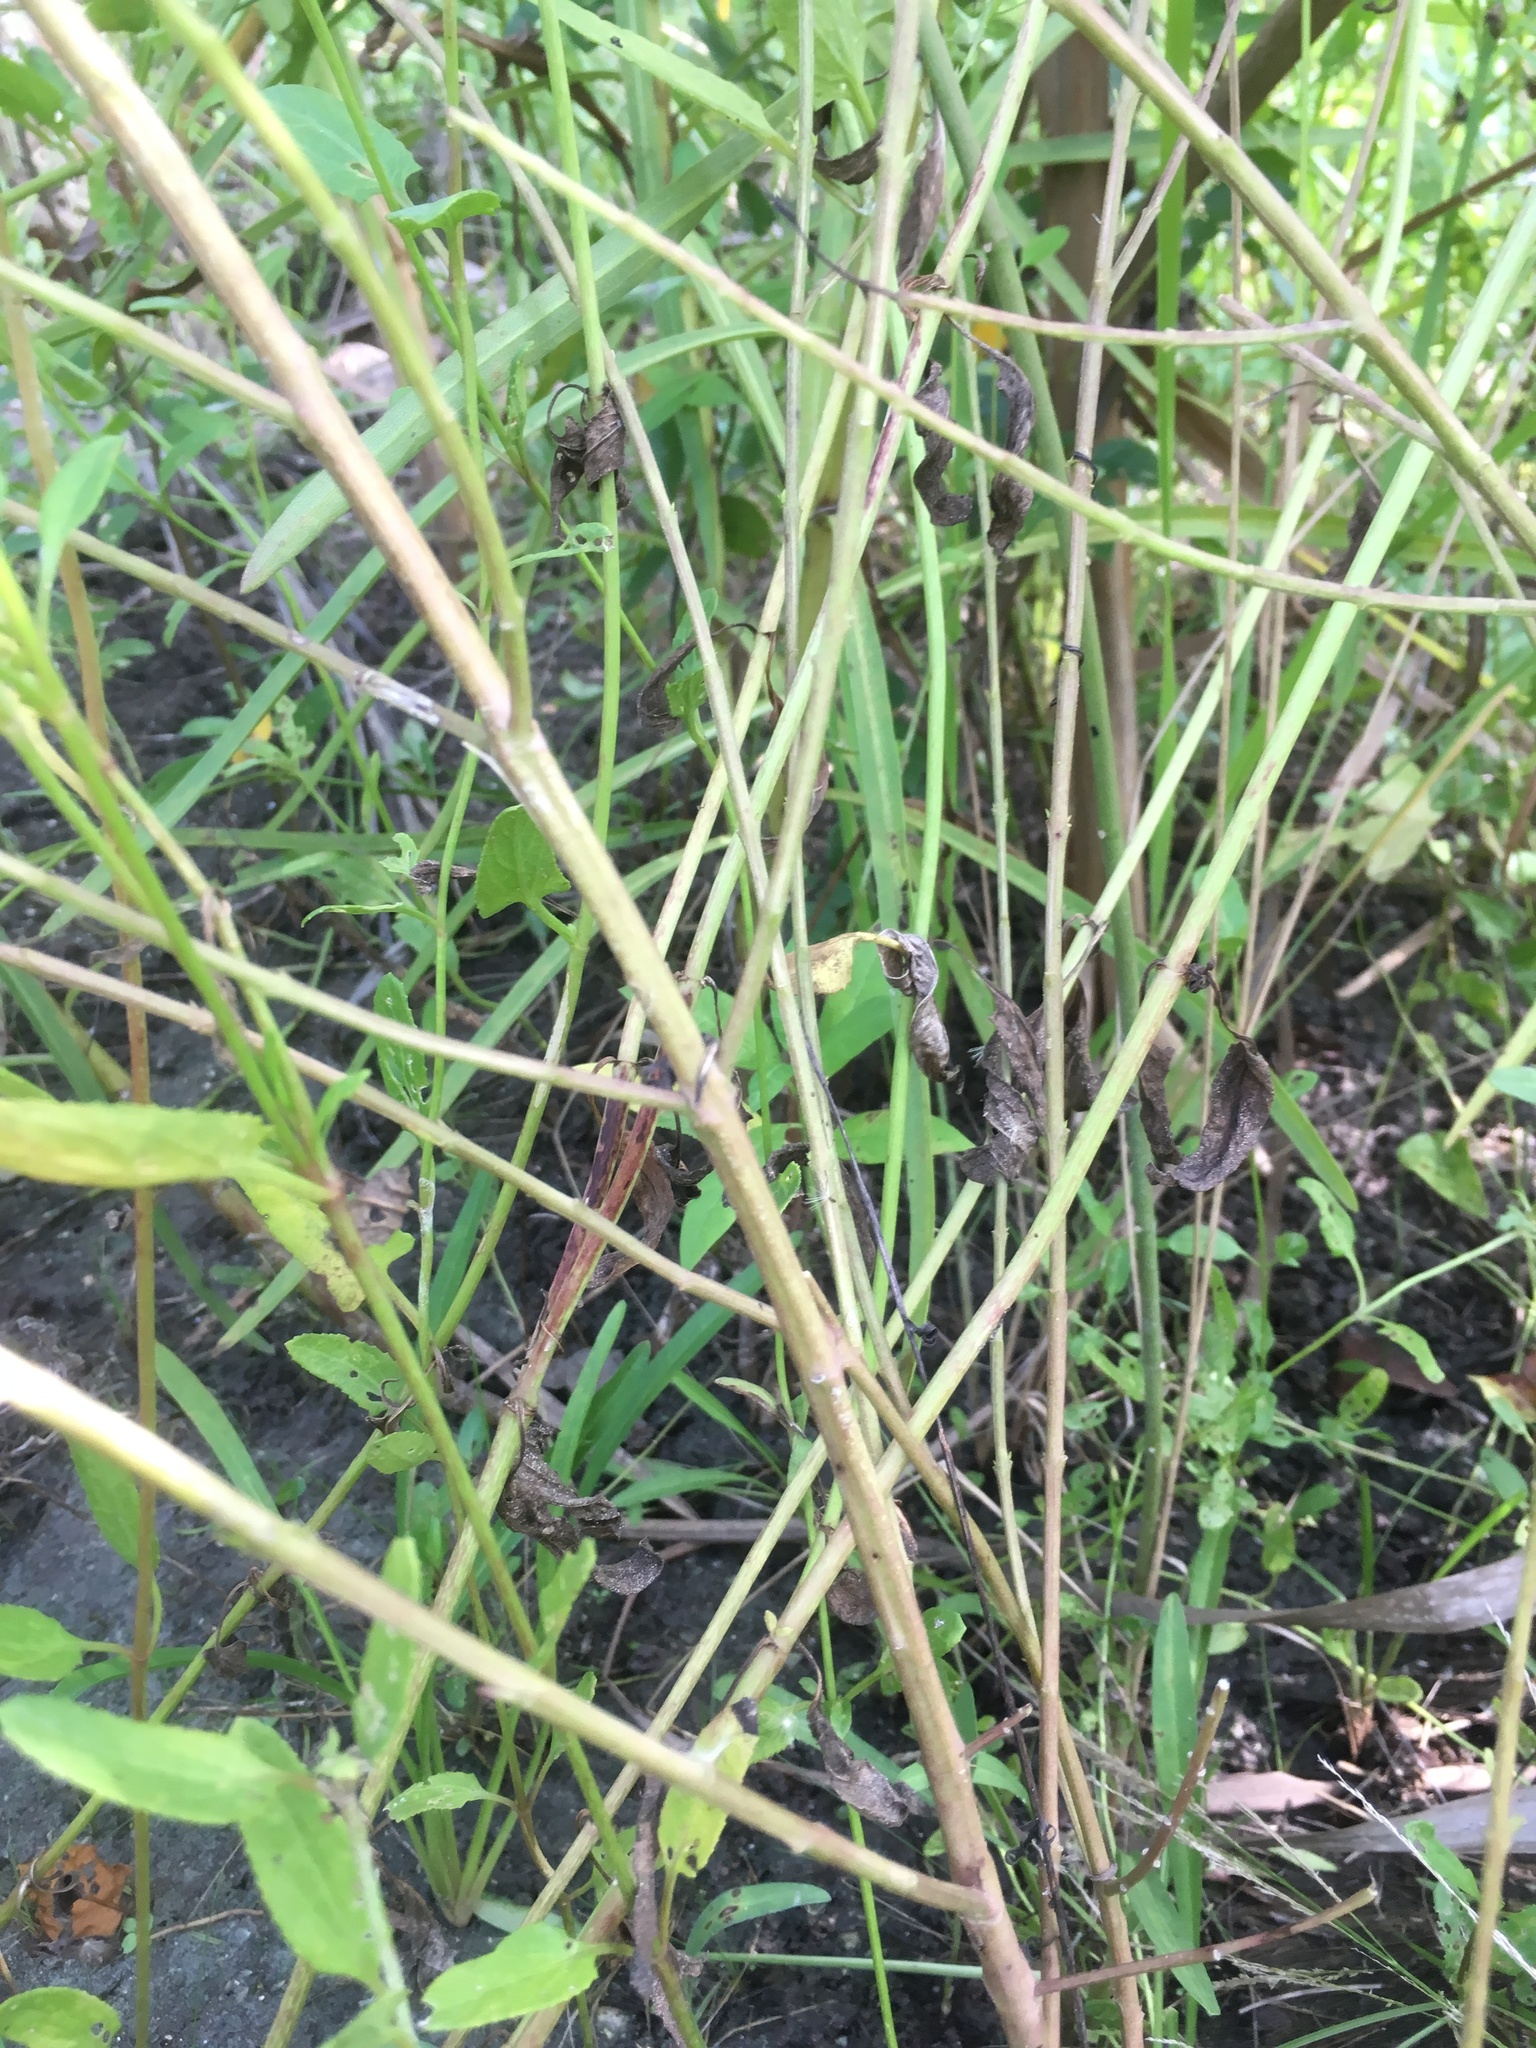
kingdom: Plantae
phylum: Tracheophyta
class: Magnoliopsida
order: Lamiales
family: Orobanchaceae
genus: Agalinis
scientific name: Agalinis manglaris
